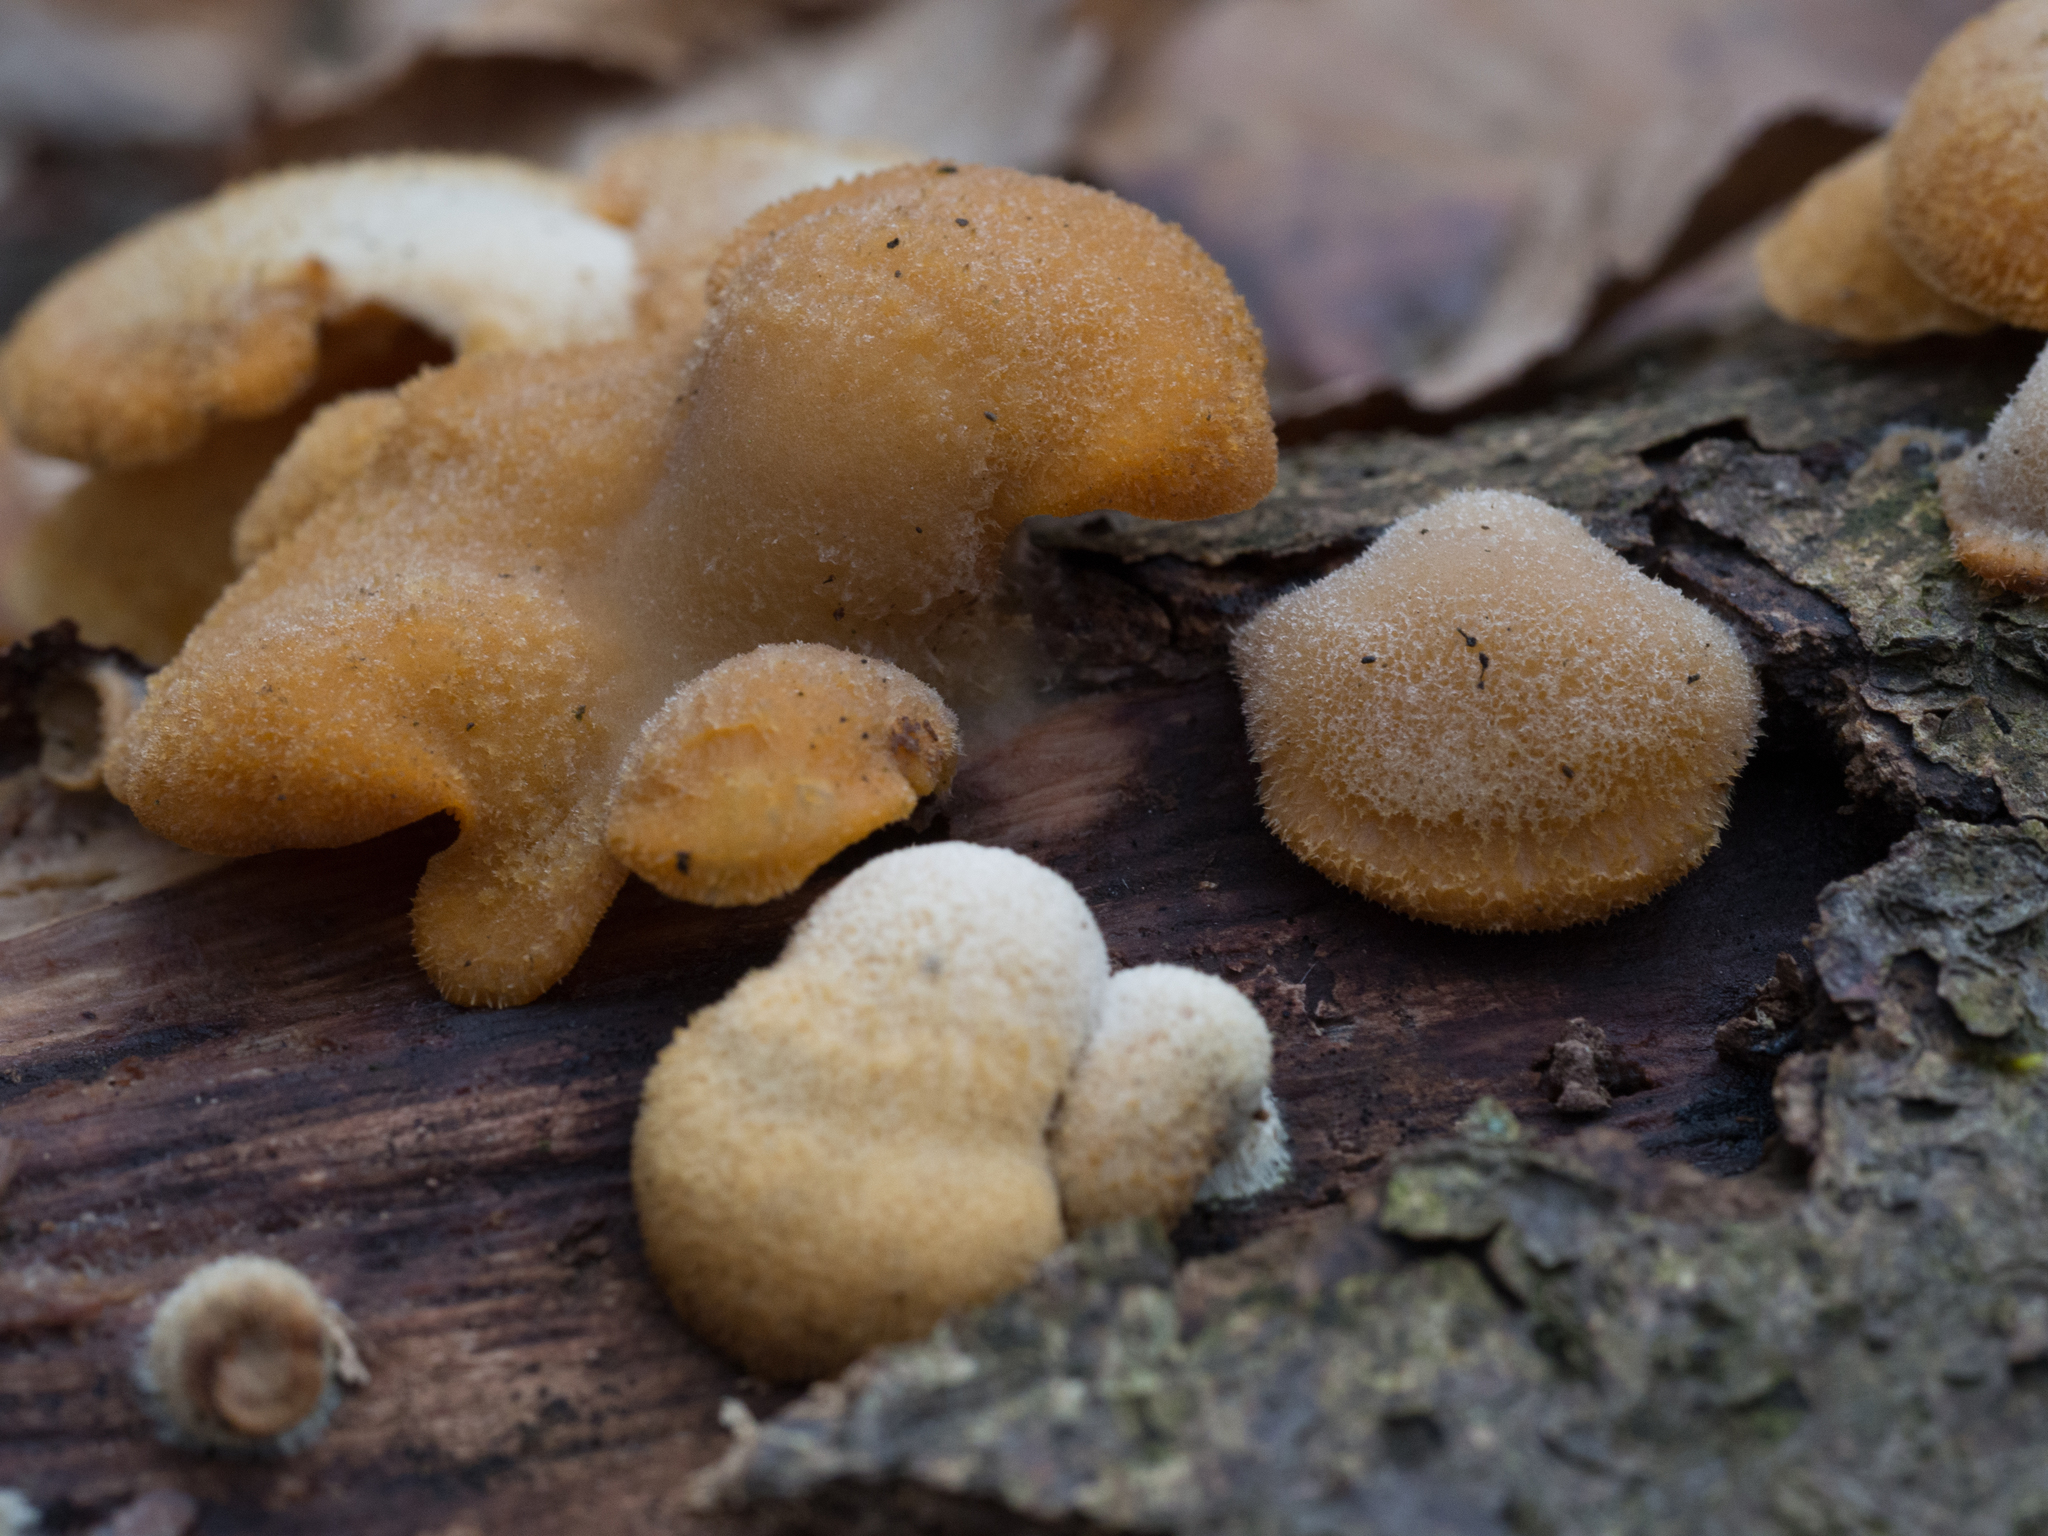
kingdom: Fungi
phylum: Basidiomycota
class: Agaricomycetes
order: Agaricales
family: Phyllotopsidaceae
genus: Phyllotopsis
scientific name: Phyllotopsis nidulans
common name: Orange mock oyster
